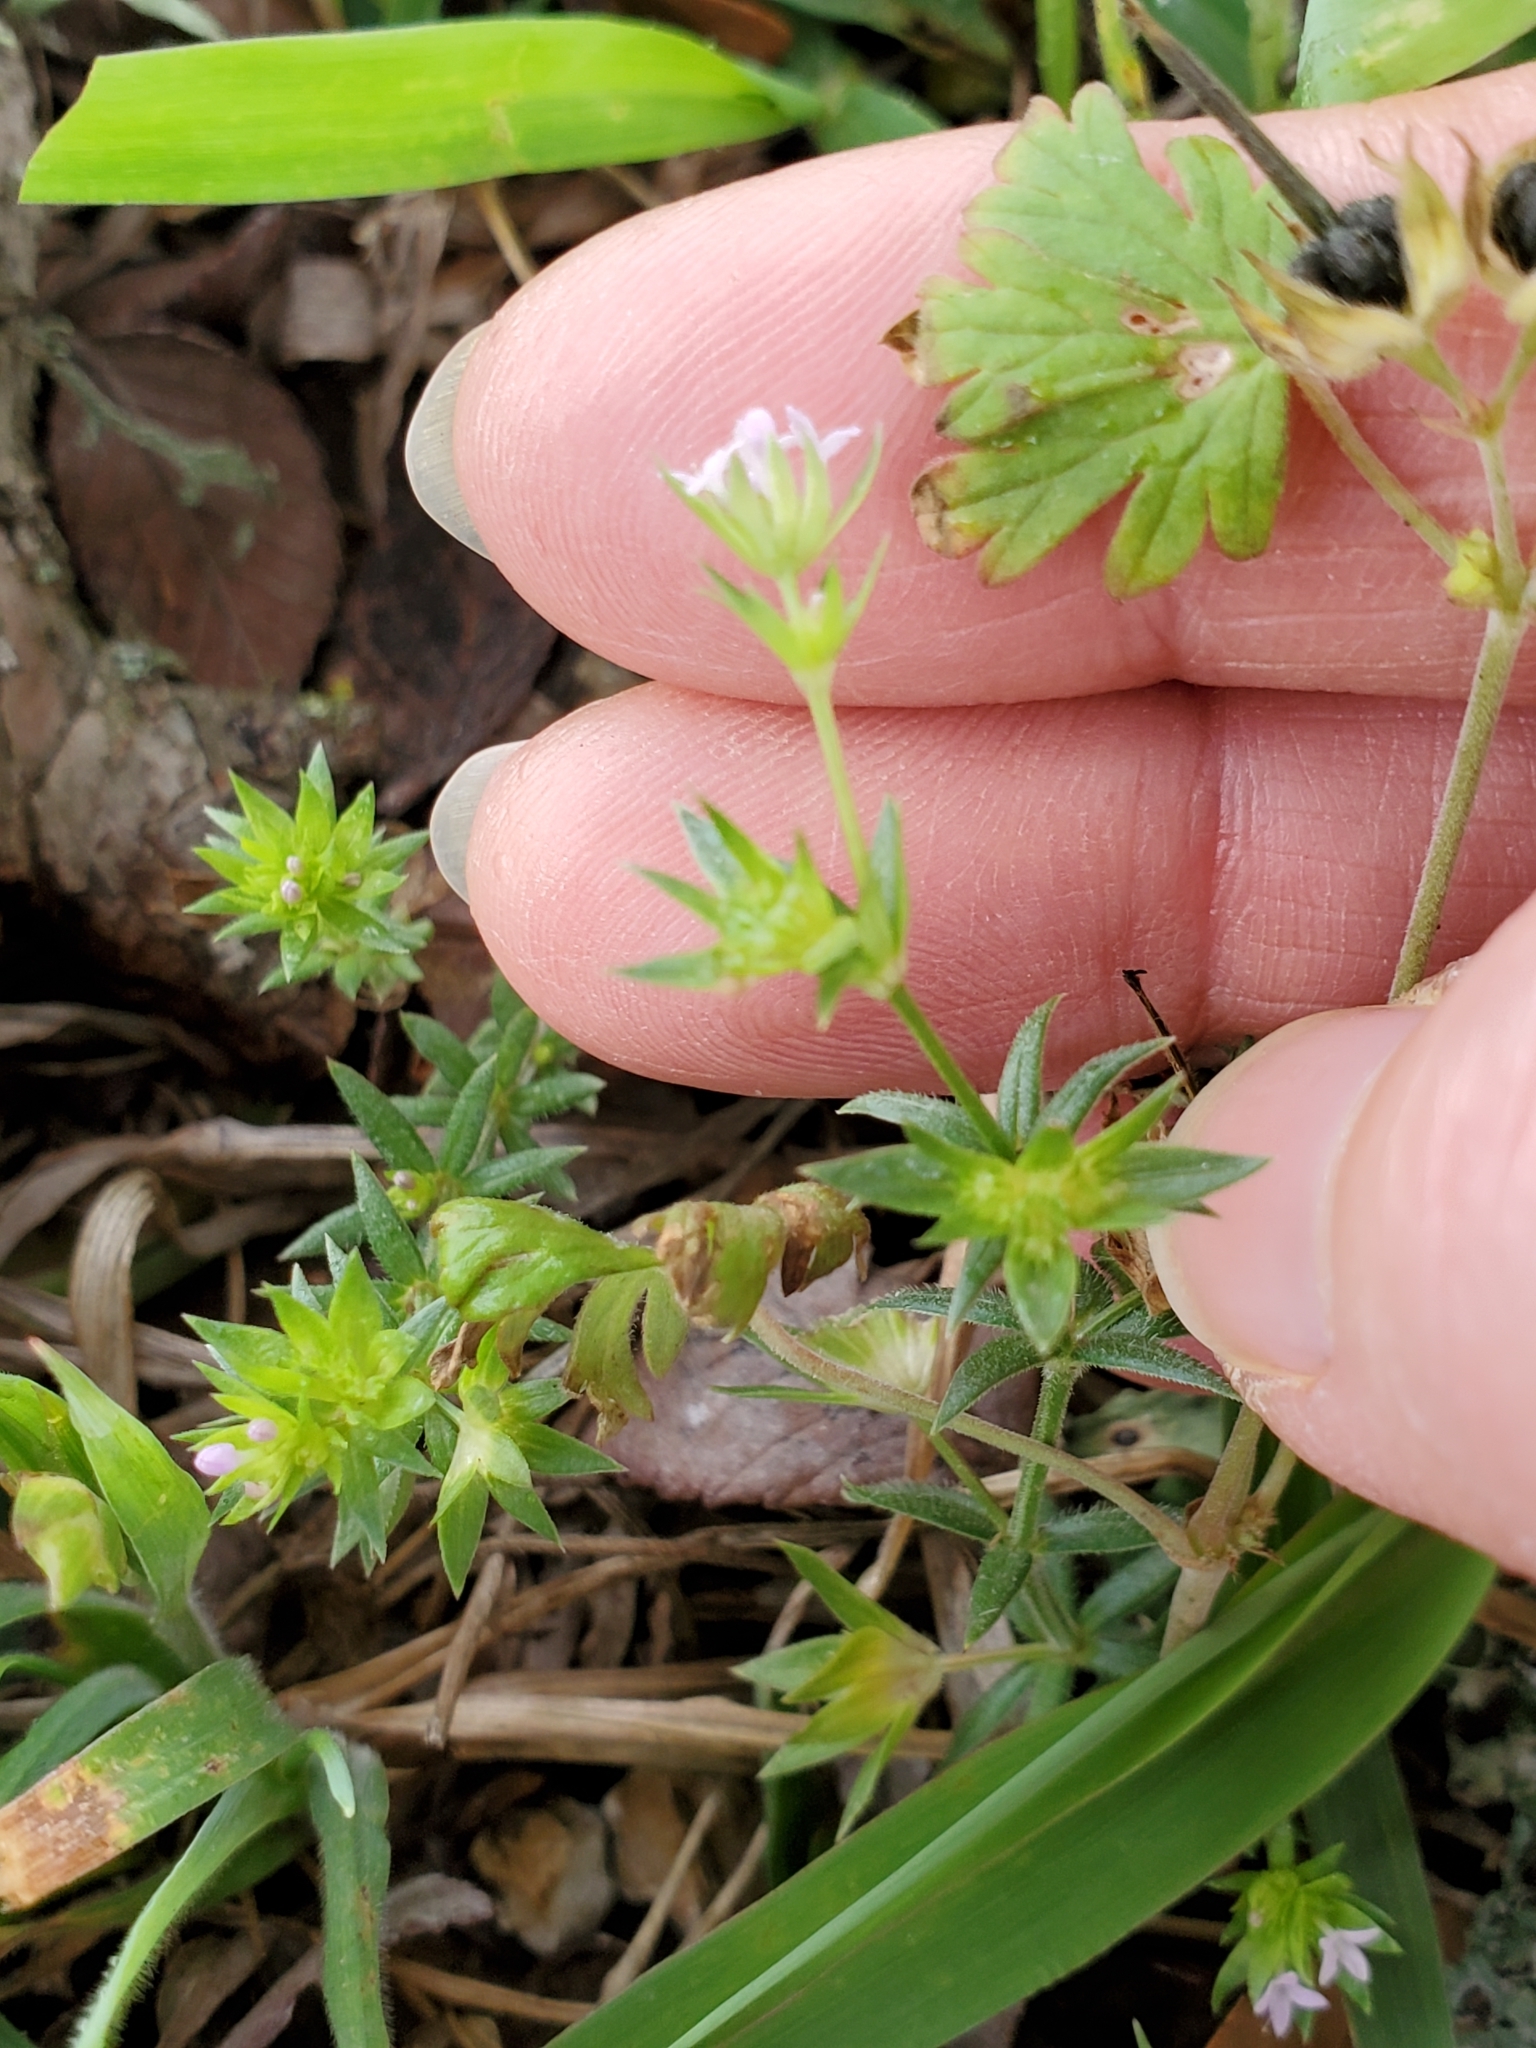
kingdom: Plantae
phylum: Tracheophyta
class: Magnoliopsida
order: Gentianales
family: Rubiaceae
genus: Sherardia
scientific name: Sherardia arvensis
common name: Field madder
